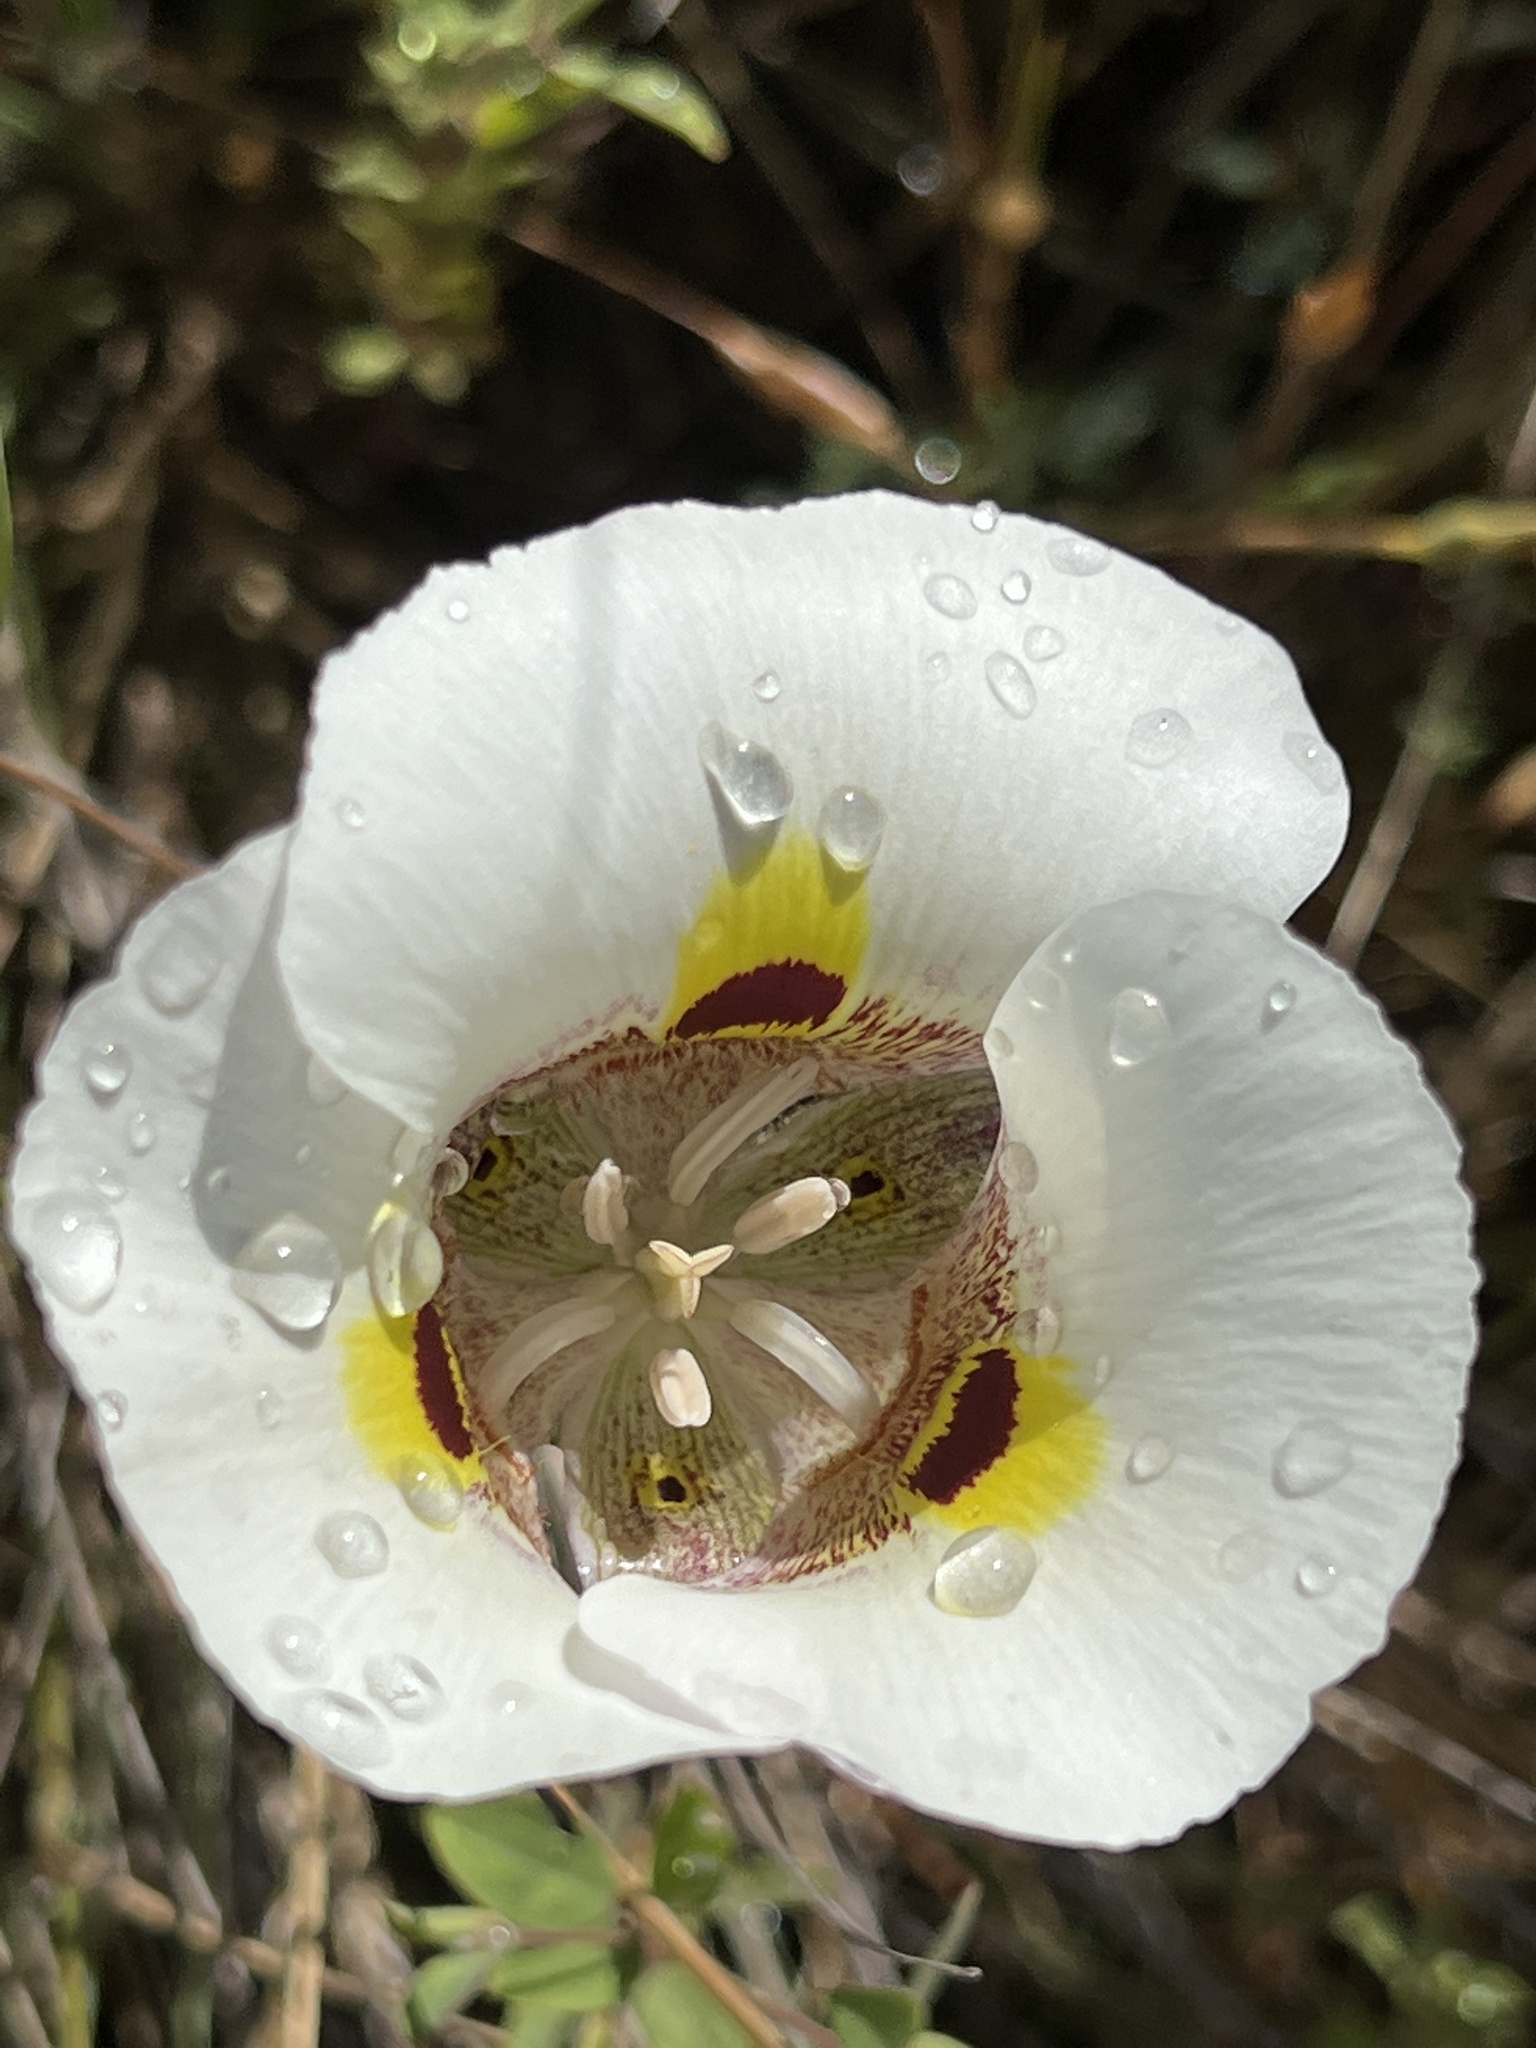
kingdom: Plantae
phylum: Tracheophyta
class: Liliopsida
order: Liliales
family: Liliaceae
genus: Calochortus
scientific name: Calochortus superbus
